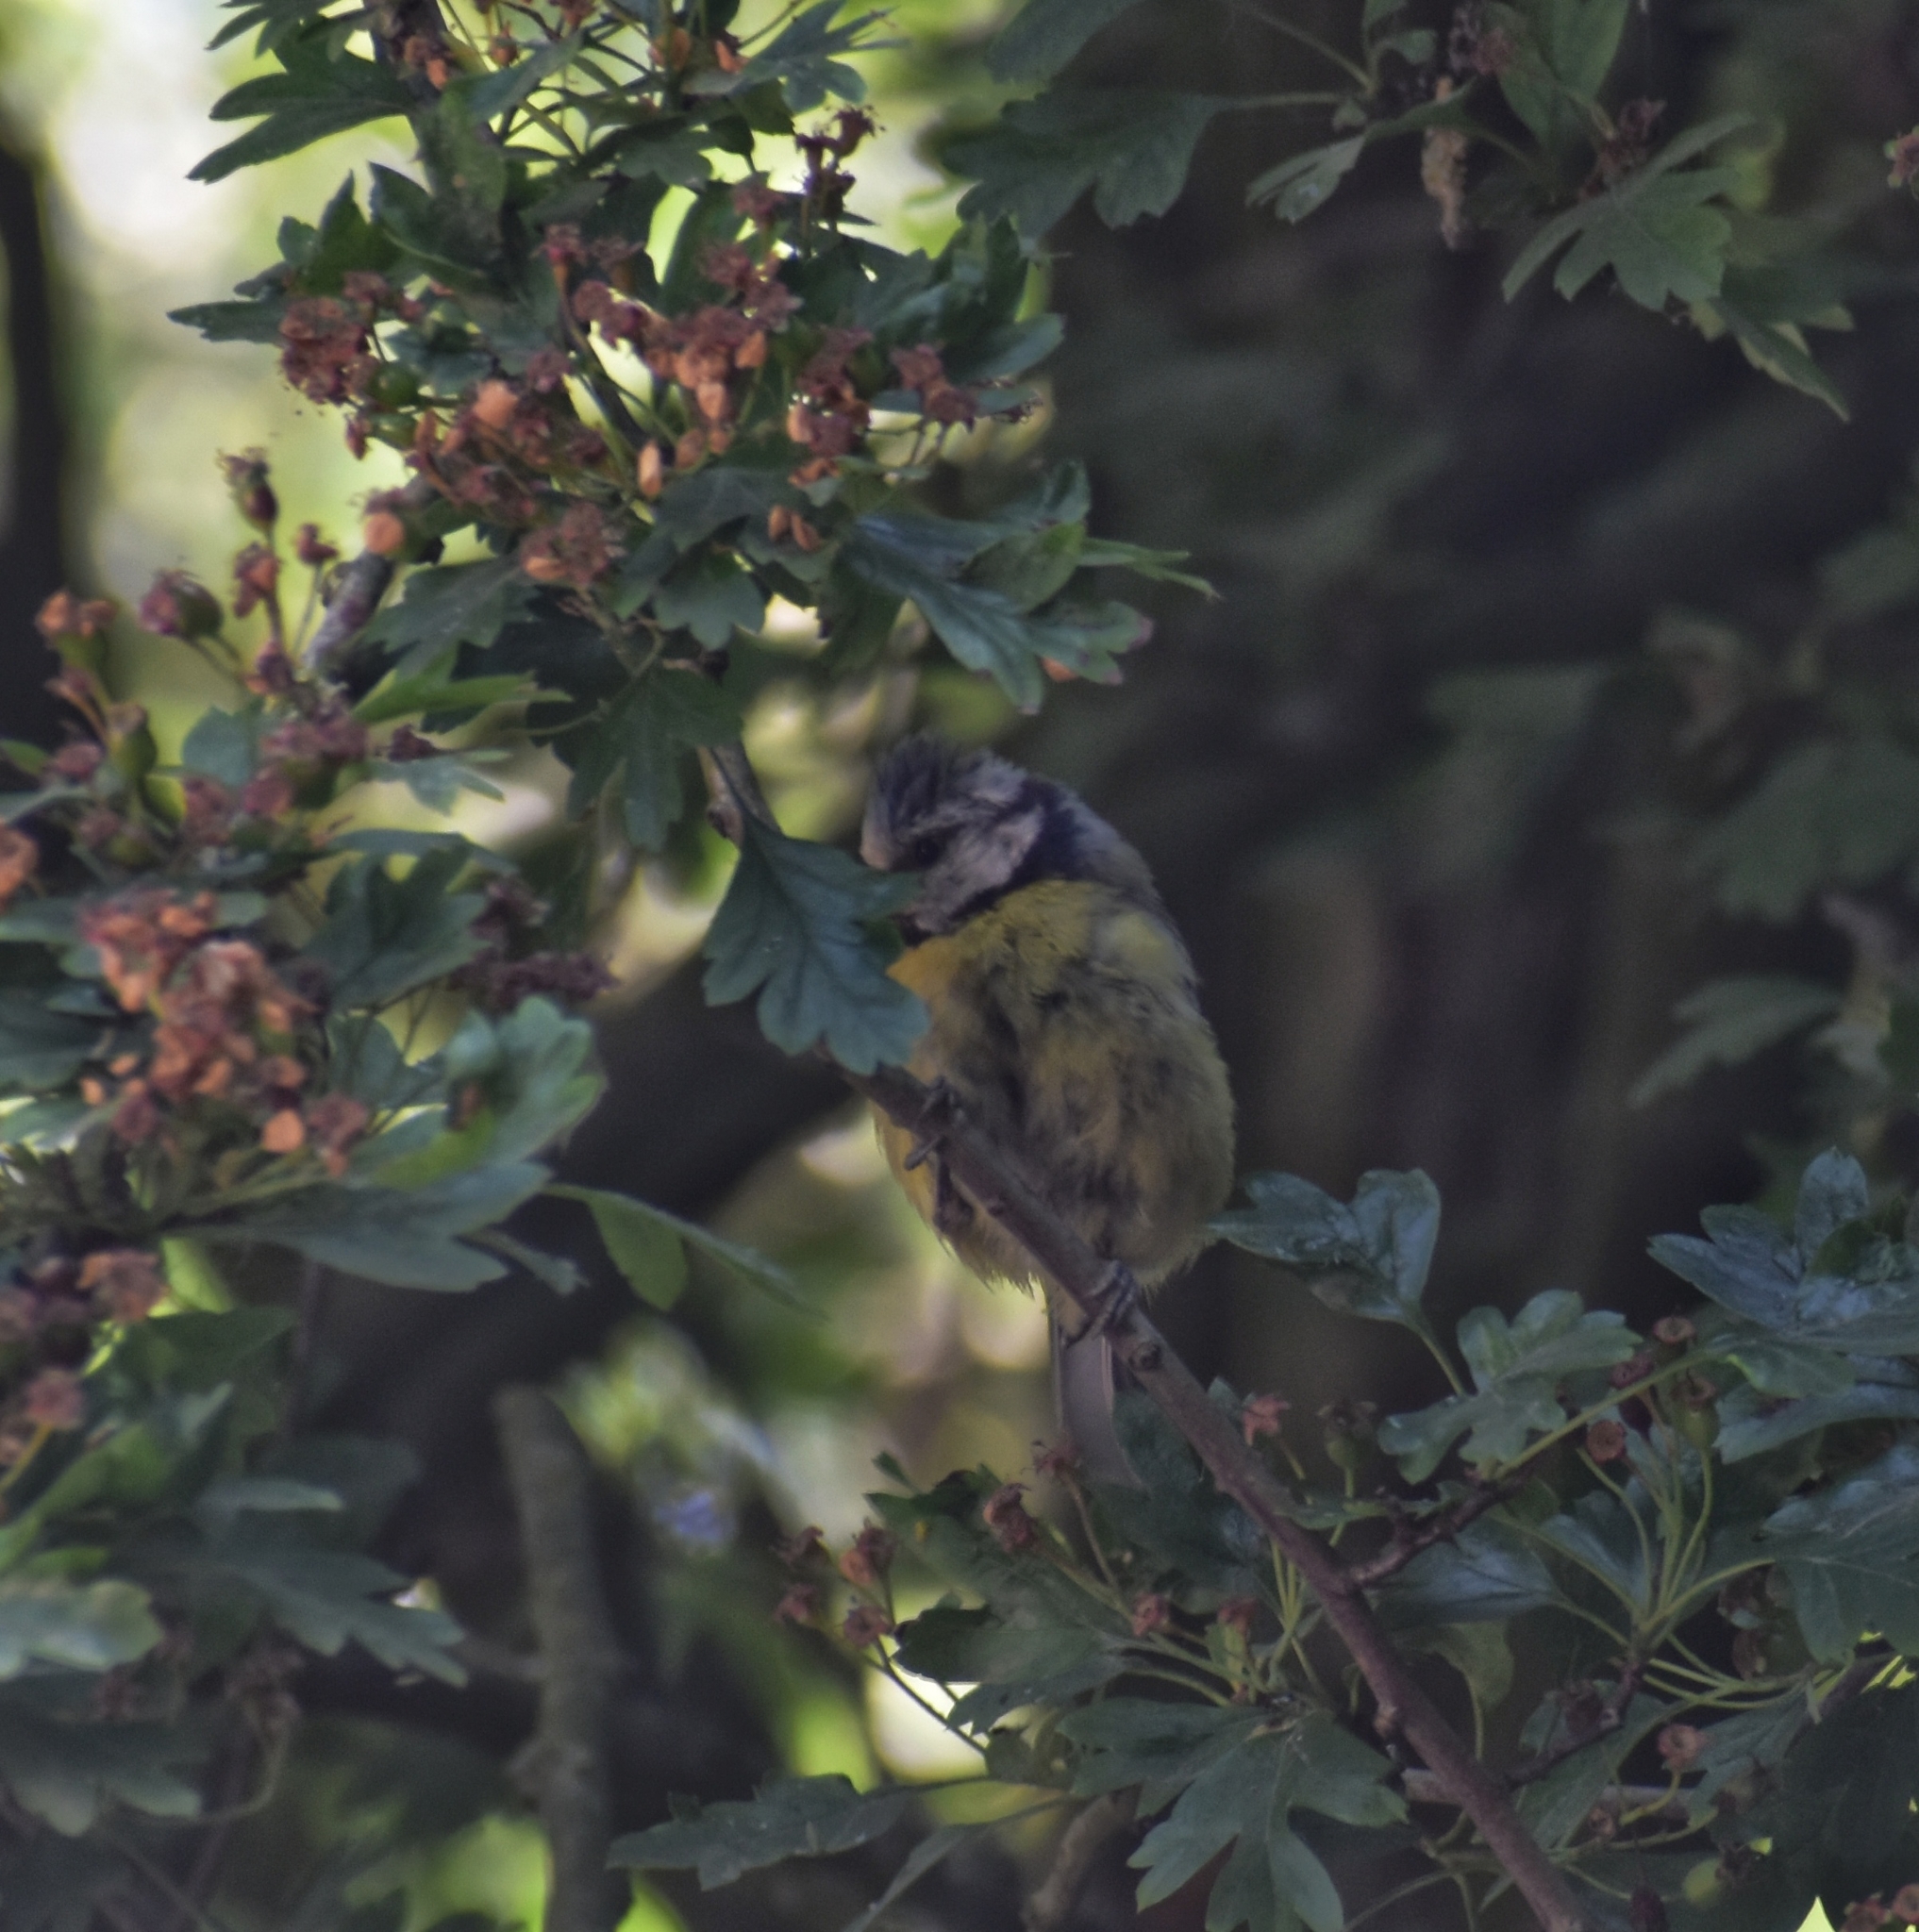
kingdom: Animalia
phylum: Chordata
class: Aves
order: Passeriformes
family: Paridae
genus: Cyanistes
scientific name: Cyanistes caeruleus
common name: Eurasian blue tit
